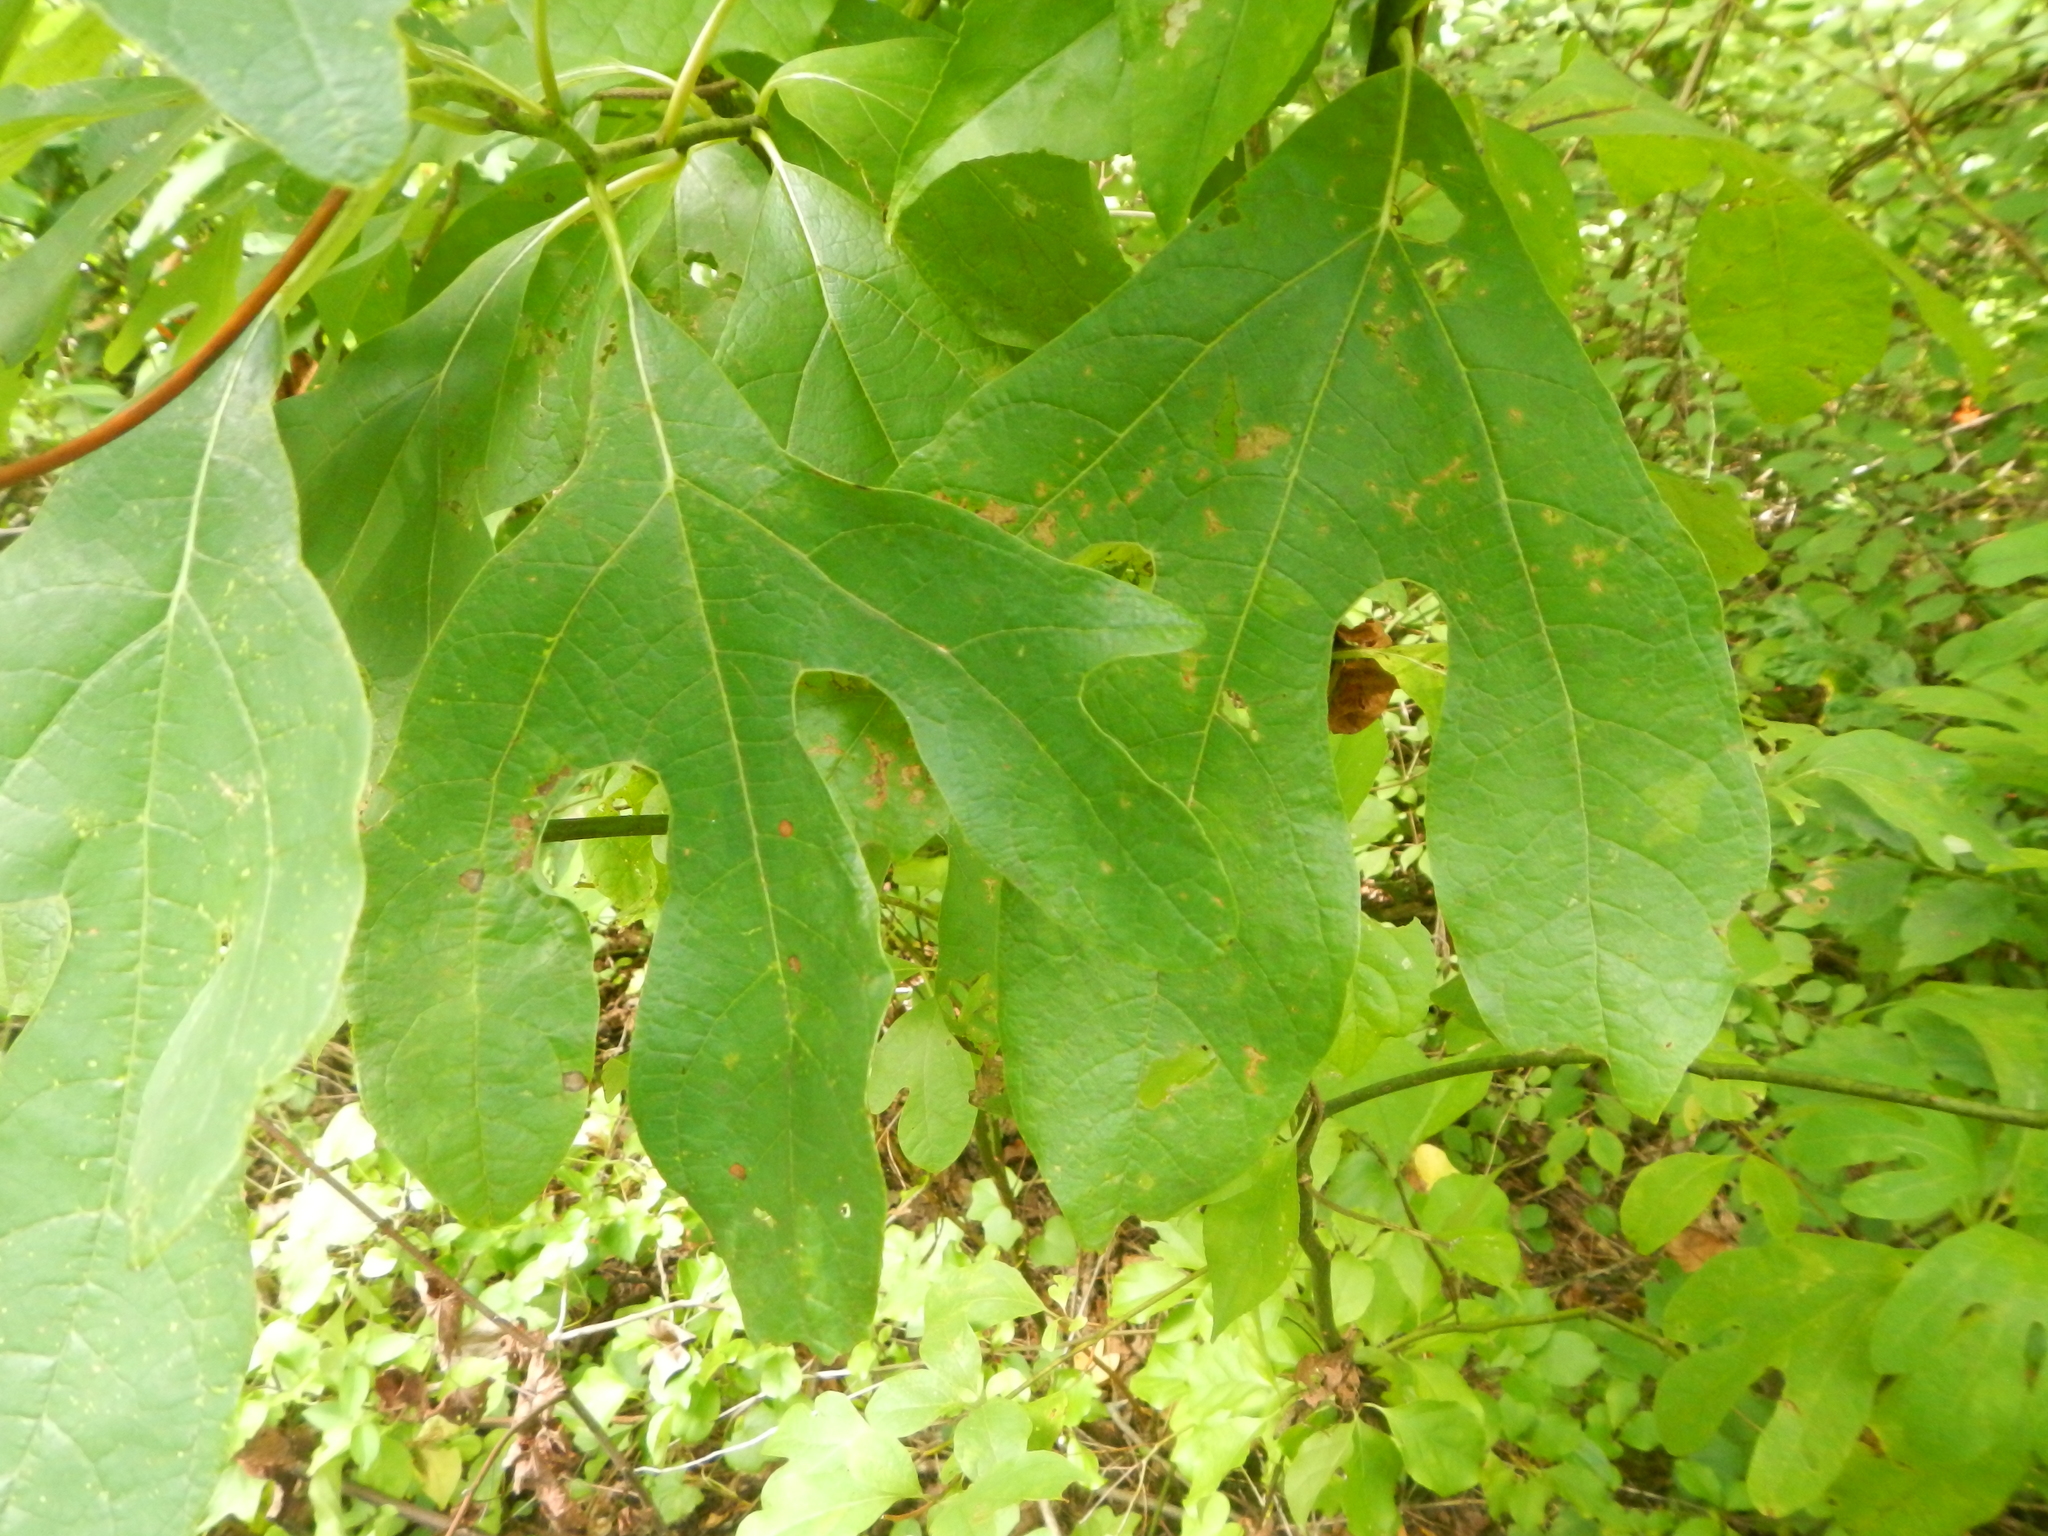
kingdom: Plantae
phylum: Tracheophyta
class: Magnoliopsida
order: Laurales
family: Lauraceae
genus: Sassafras
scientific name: Sassafras albidum
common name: Sassafras
